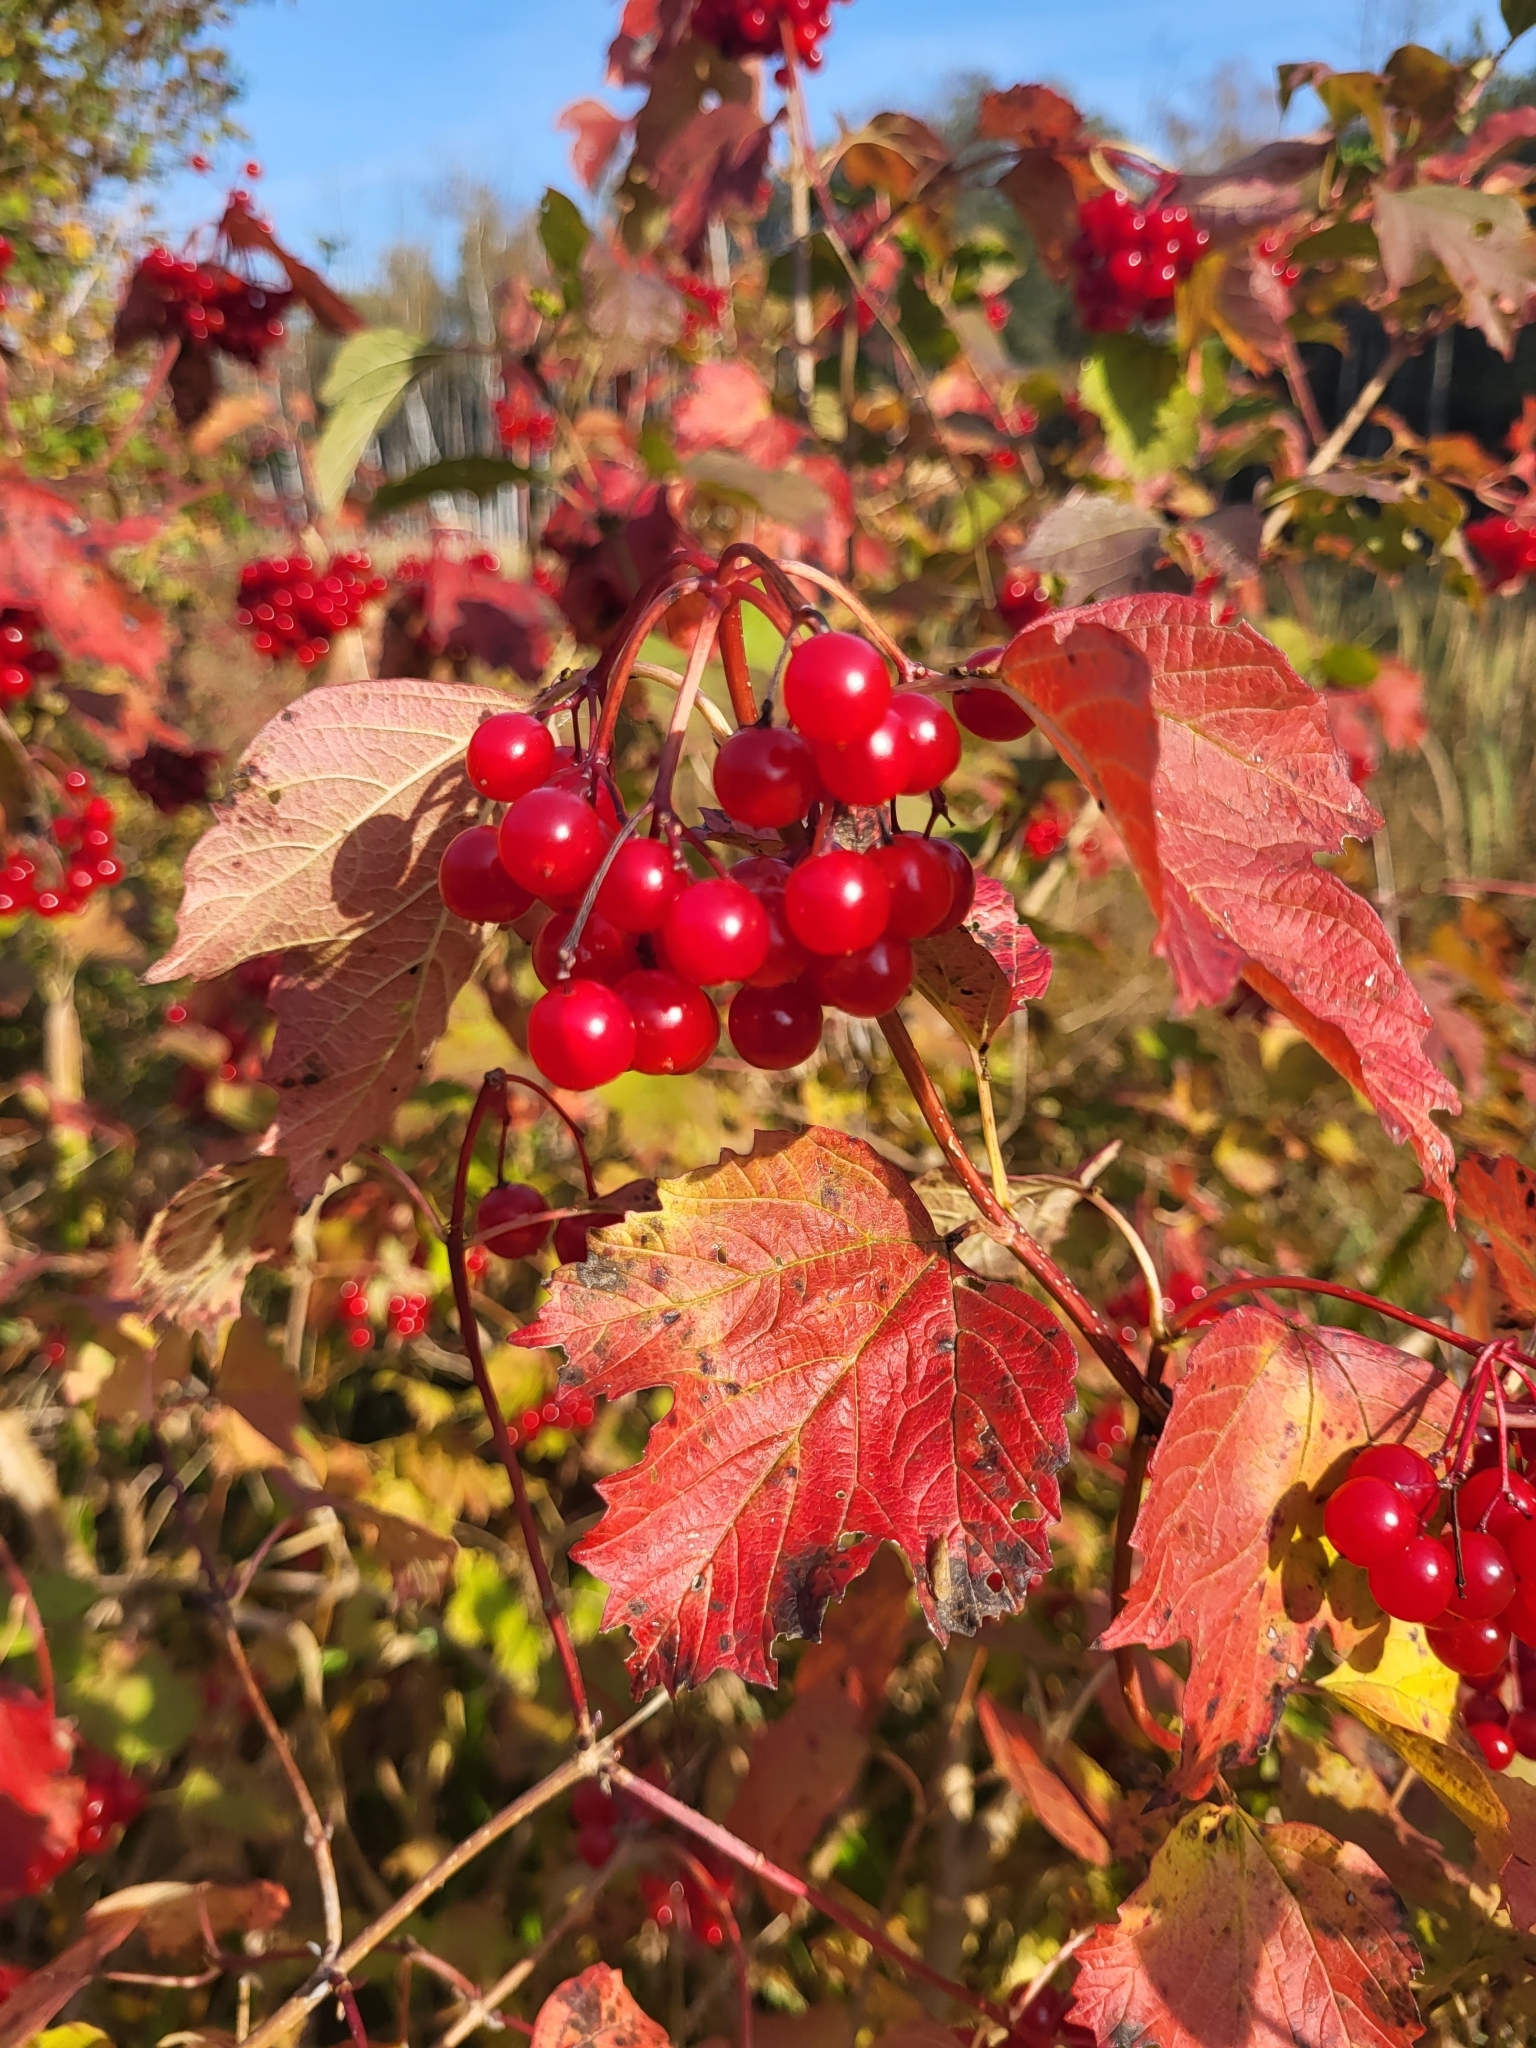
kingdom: Plantae
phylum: Tracheophyta
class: Magnoliopsida
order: Dipsacales
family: Viburnaceae
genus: Viburnum
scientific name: Viburnum opulus
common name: Guelder-rose
